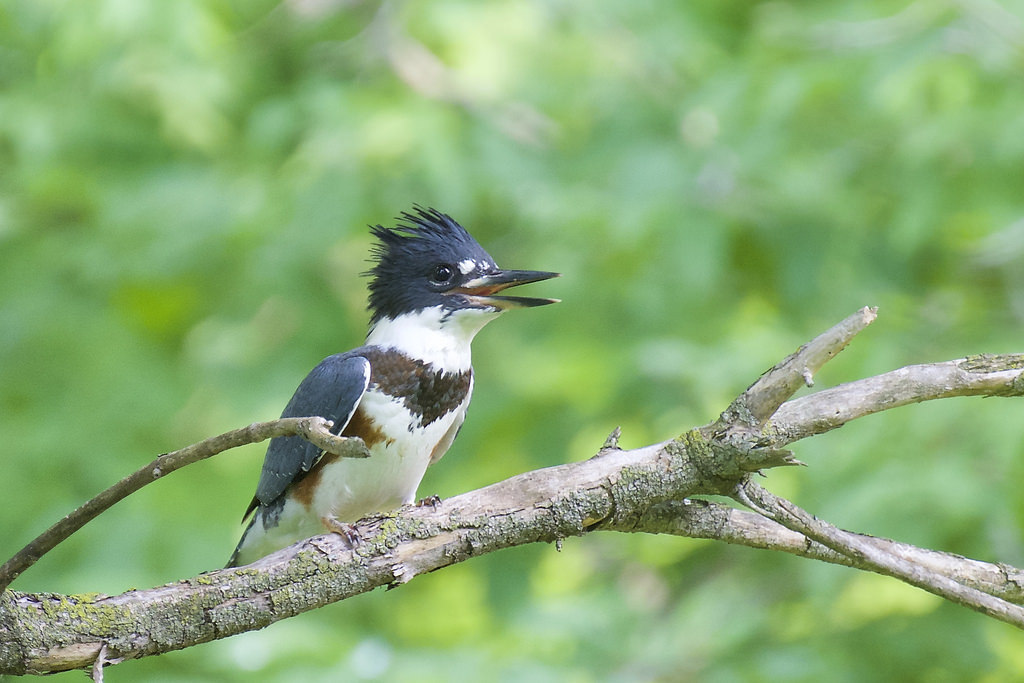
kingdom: Animalia
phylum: Chordata
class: Aves
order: Coraciiformes
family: Alcedinidae
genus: Megaceryle
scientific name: Megaceryle alcyon
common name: Belted kingfisher
